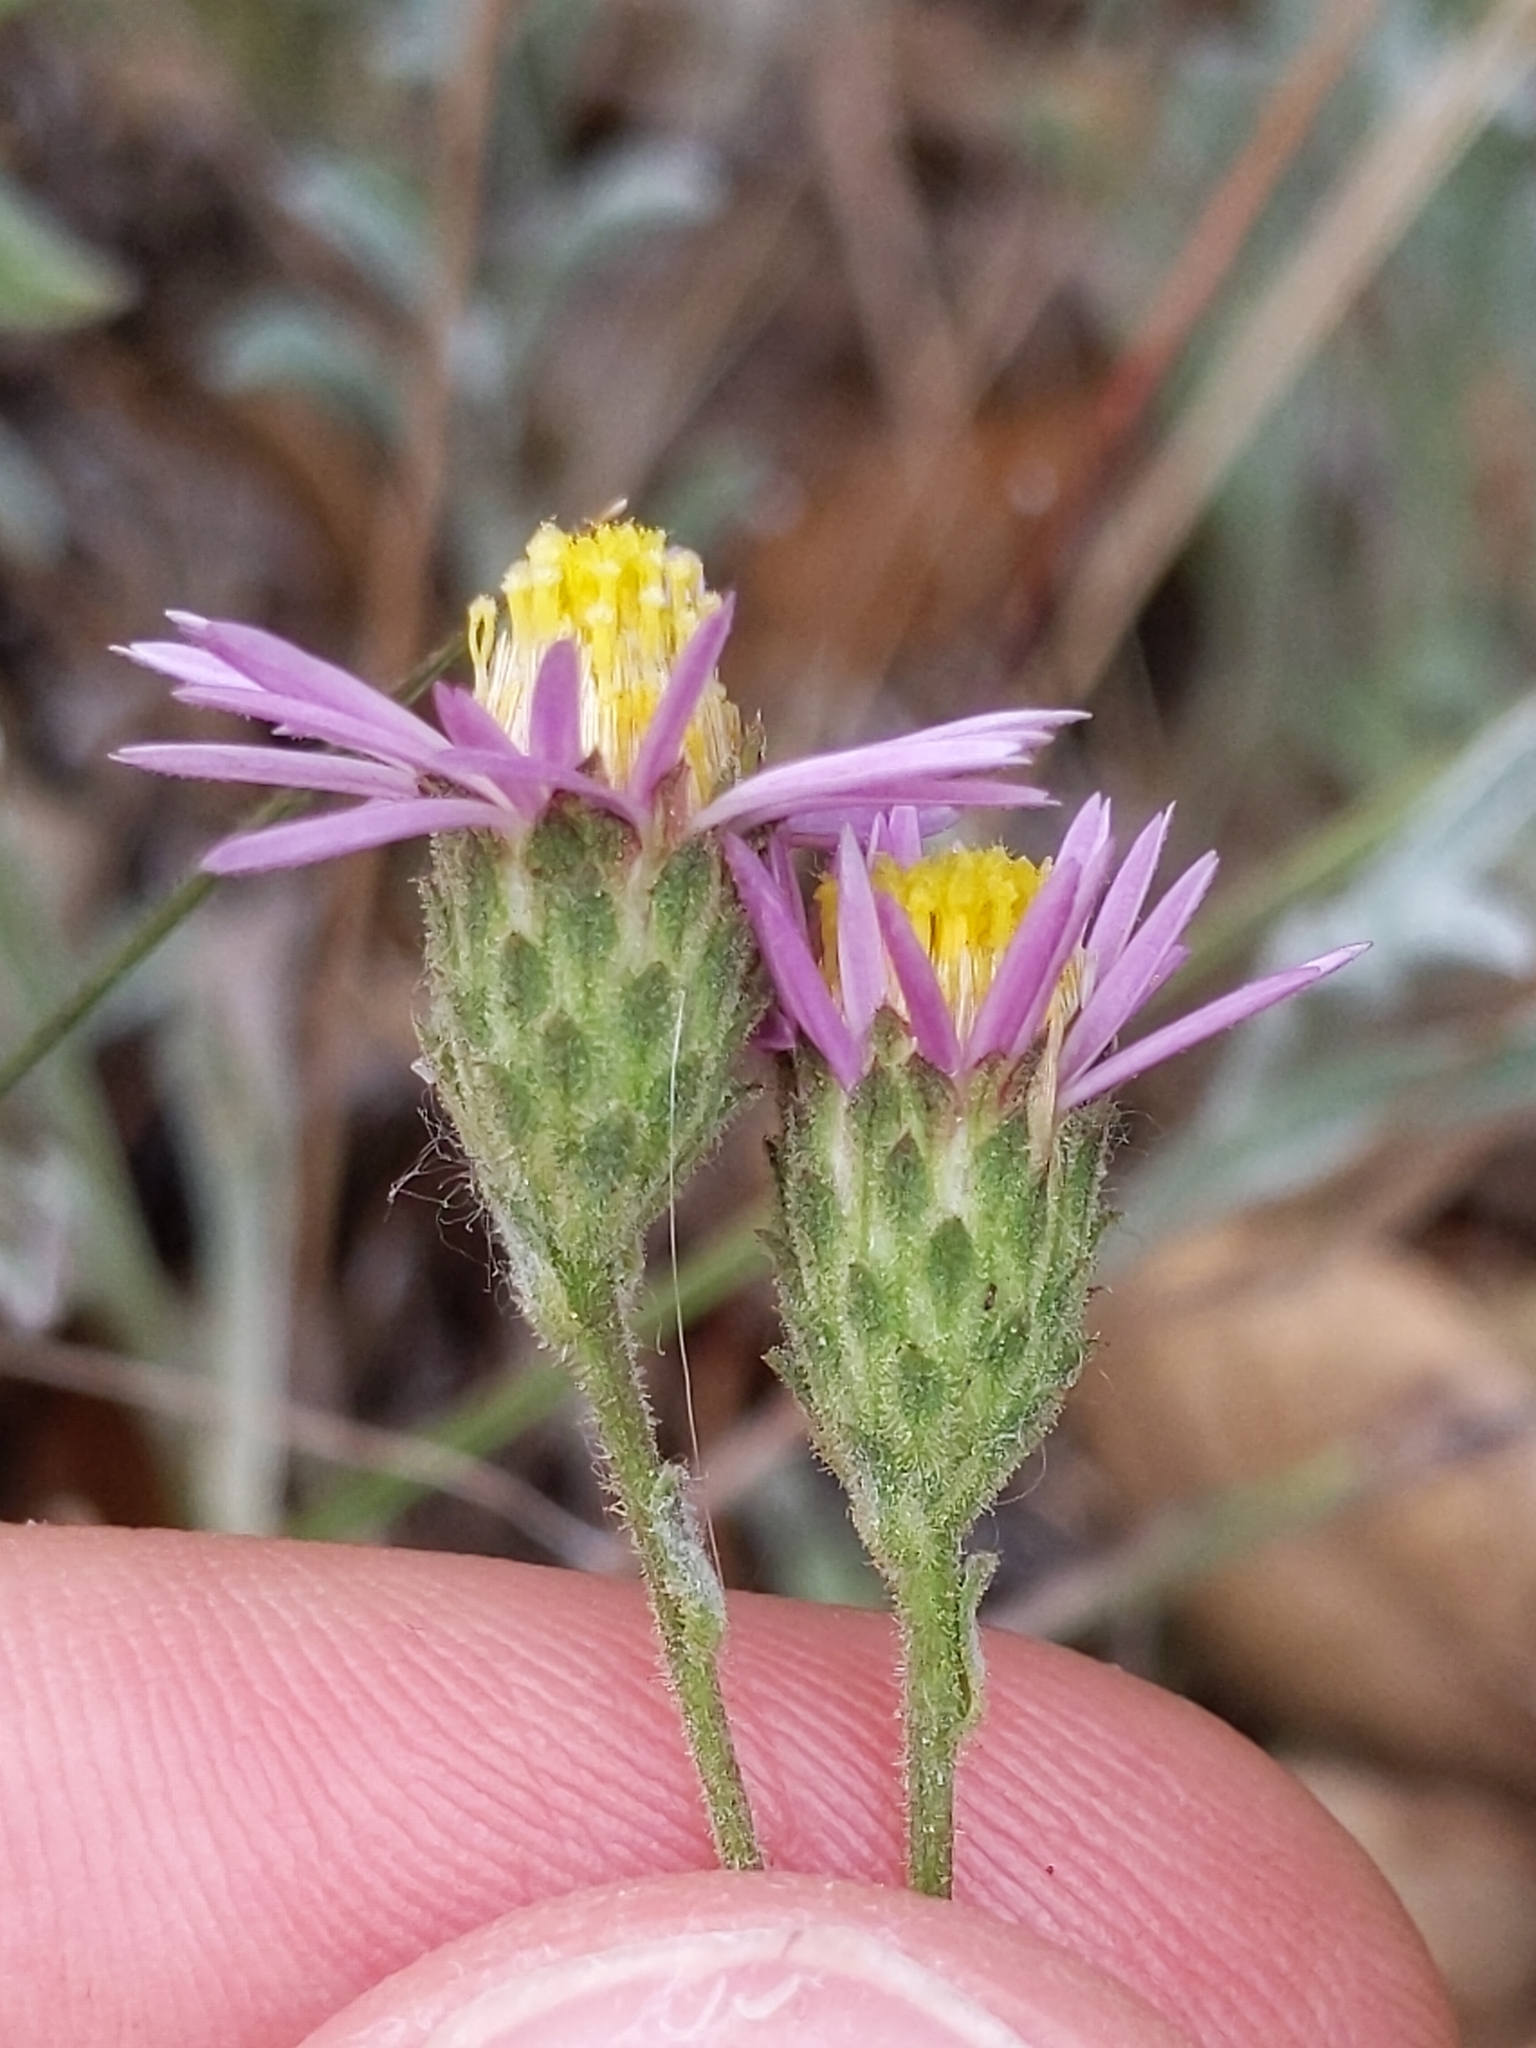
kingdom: Plantae
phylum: Tracheophyta
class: Magnoliopsida
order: Asterales
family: Asteraceae
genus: Corethrogyne
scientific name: Corethrogyne filaginifolia
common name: Sand-aster
